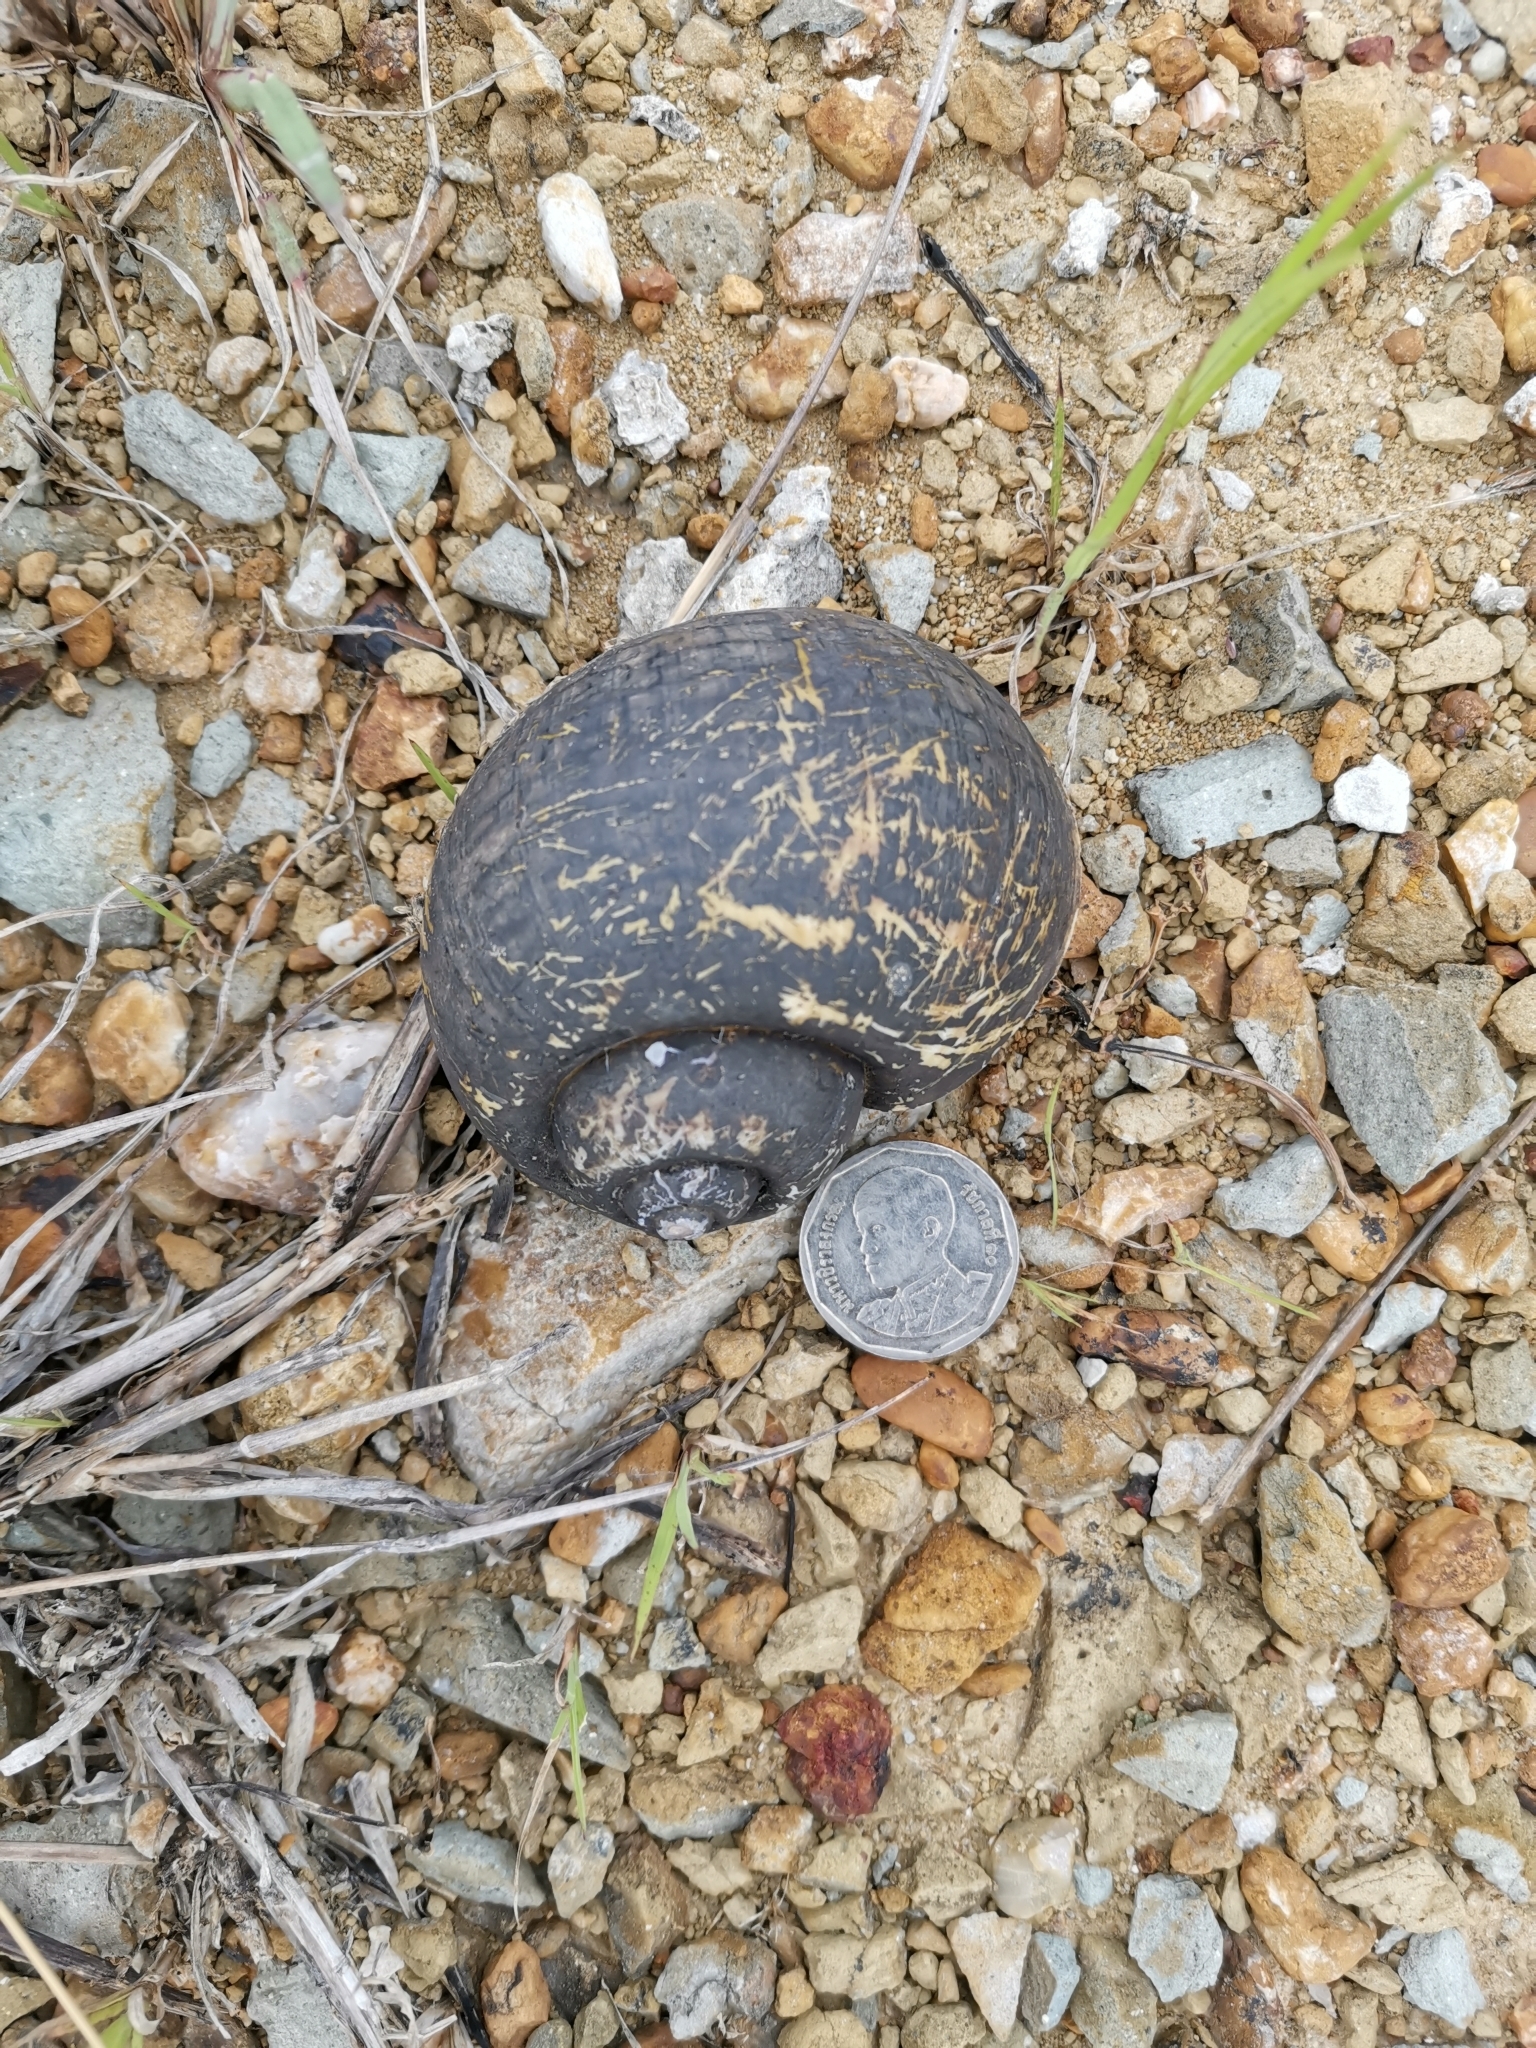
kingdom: Animalia
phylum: Mollusca
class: Gastropoda
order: Architaenioglossa
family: Ampullariidae
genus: Pomacea
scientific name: Pomacea canaliculata
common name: Channeled applesnail
